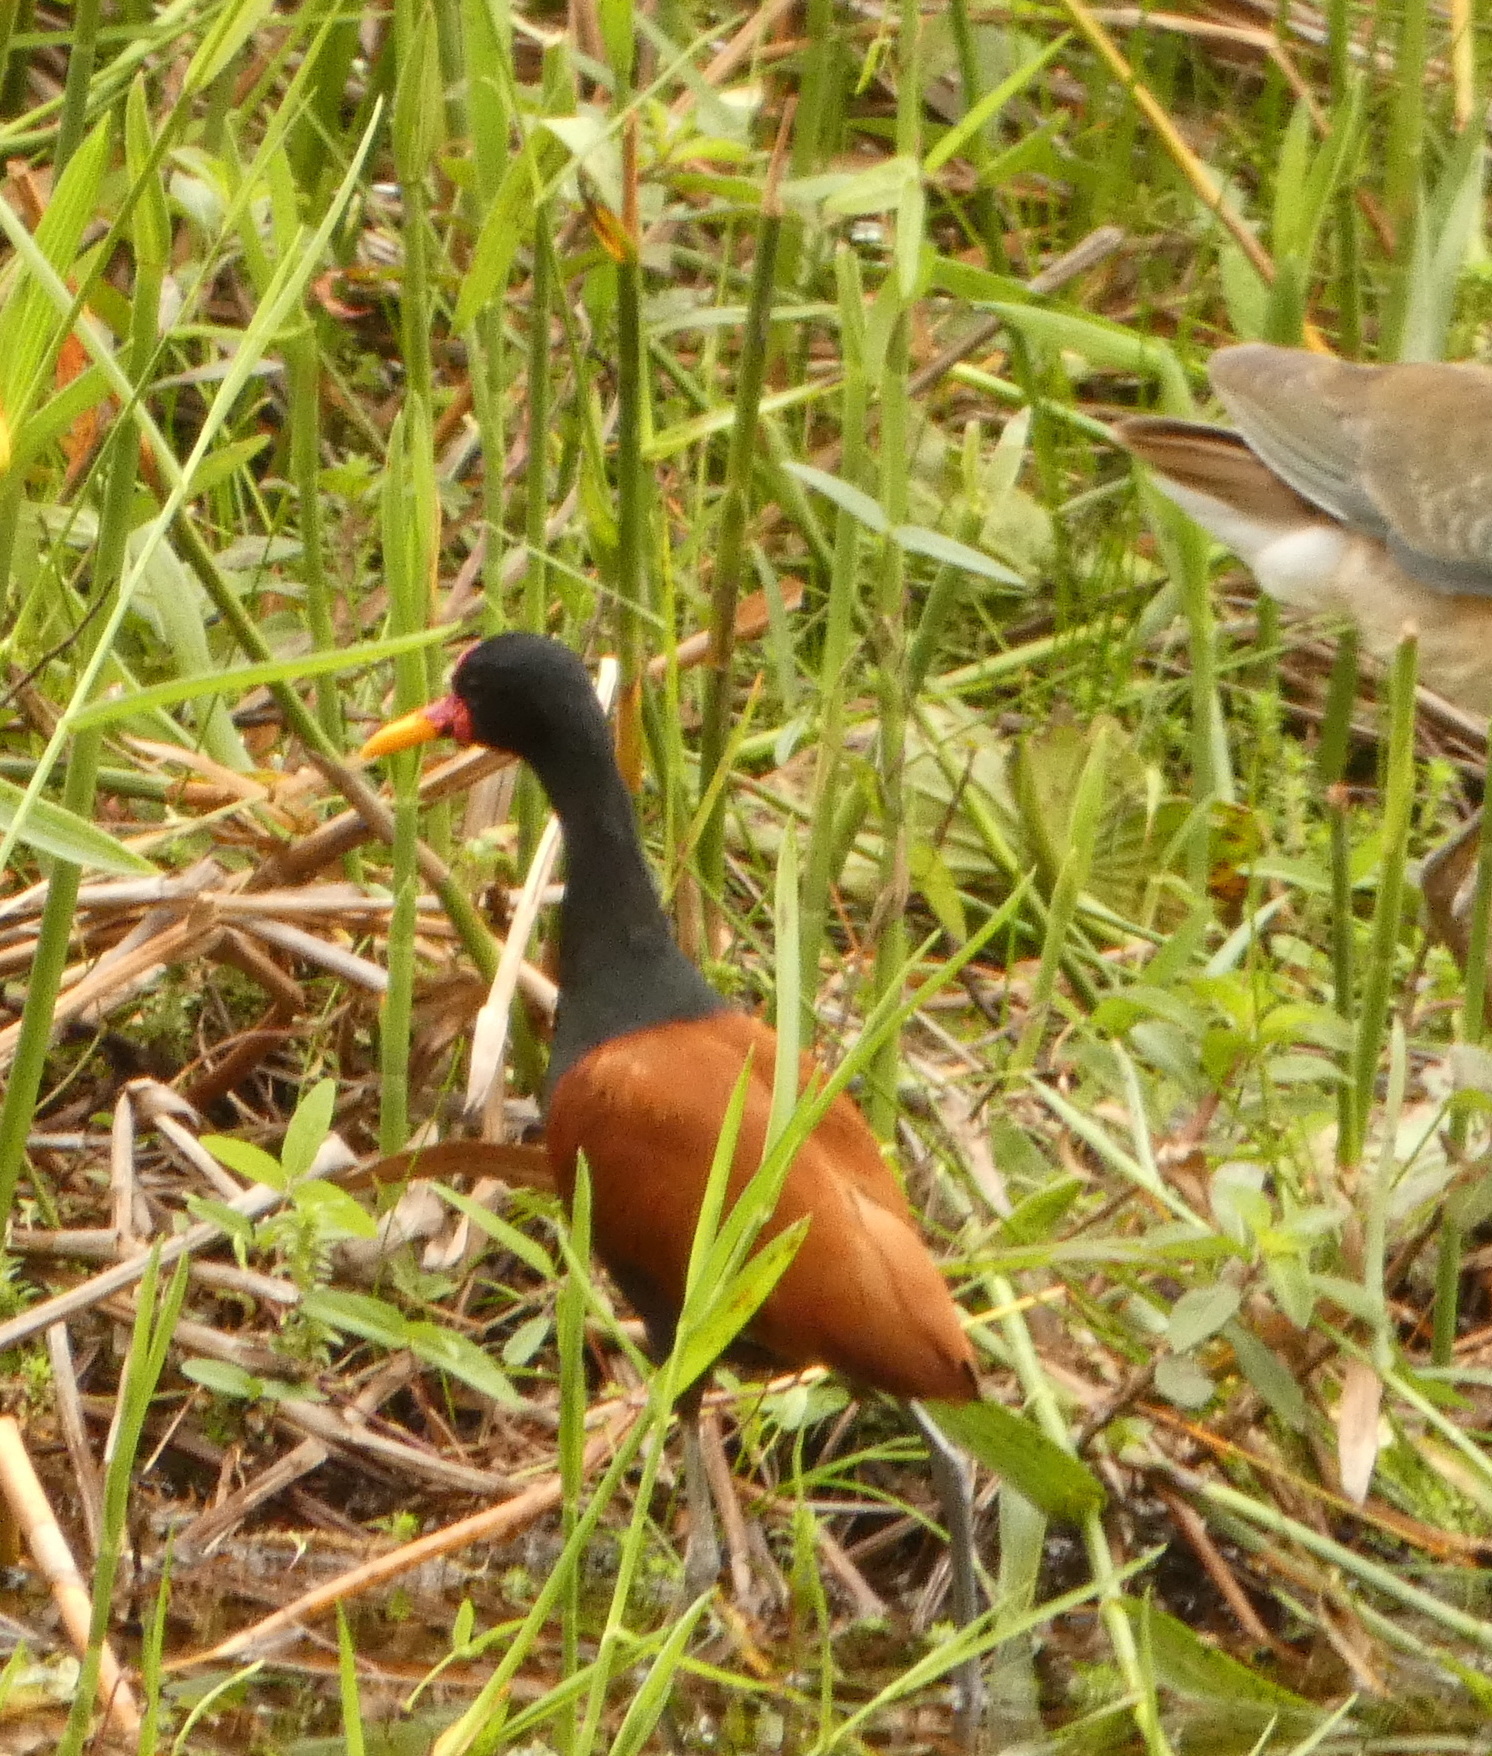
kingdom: Animalia
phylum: Chordata
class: Aves
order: Charadriiformes
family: Jacanidae
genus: Jacana
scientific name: Jacana jacana
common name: Wattled jacana
